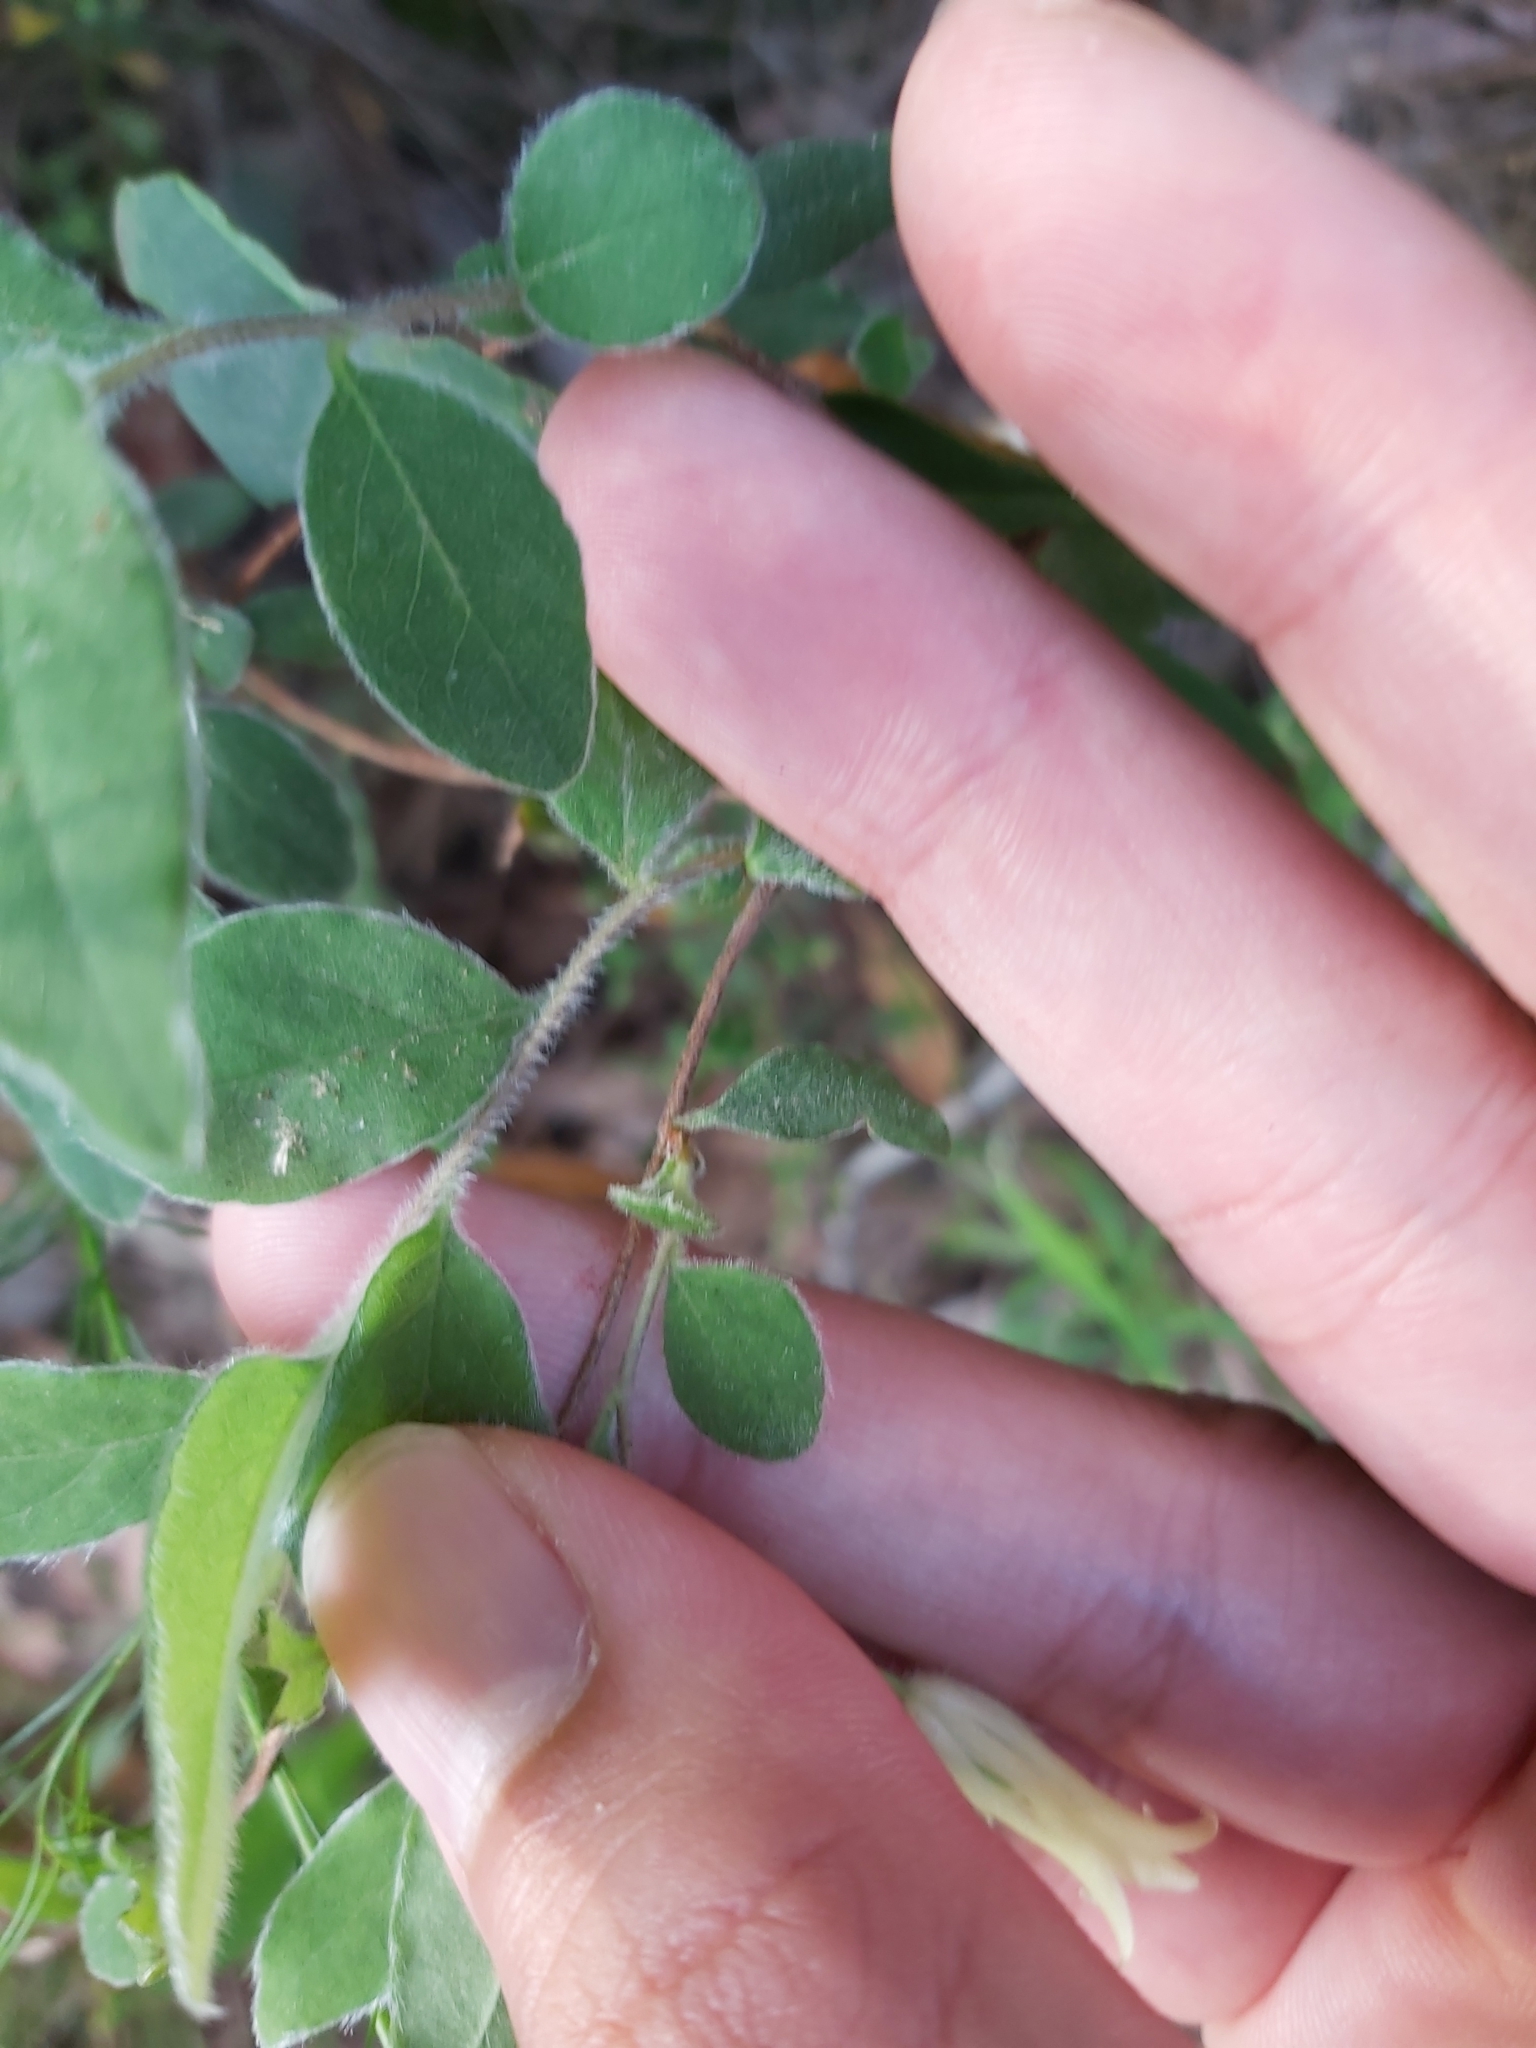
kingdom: Plantae
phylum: Tracheophyta
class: Magnoliopsida
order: Apiales
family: Pittosporaceae
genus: Billardiera
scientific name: Billardiera scandens
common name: Apple-berry
